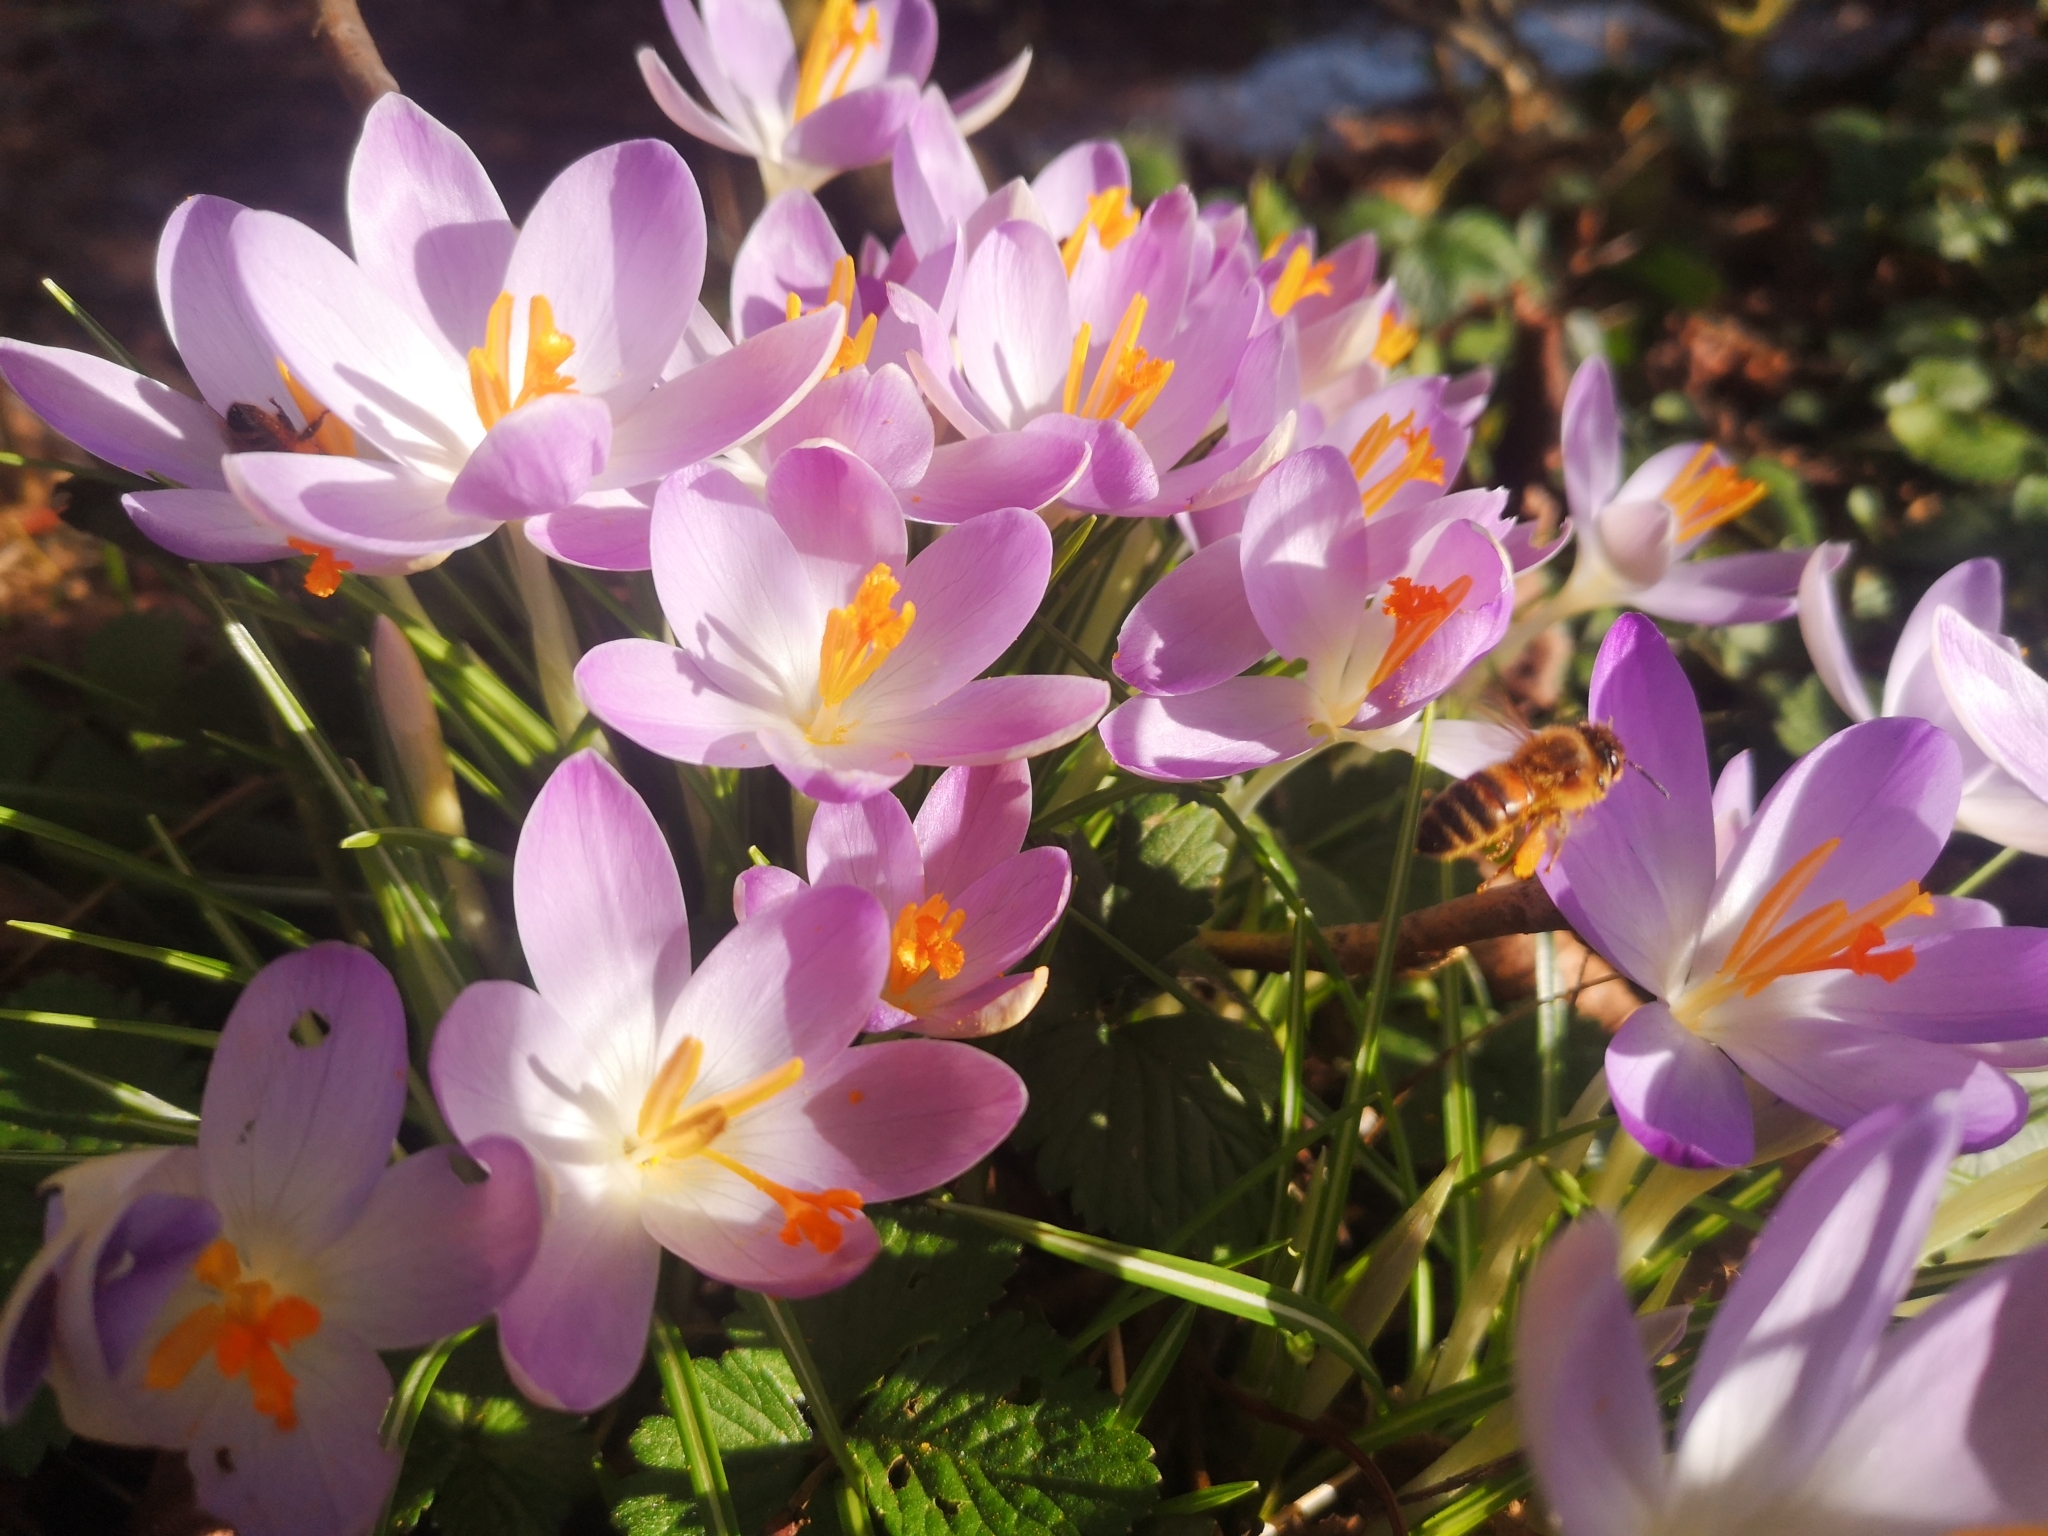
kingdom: Animalia
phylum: Arthropoda
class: Insecta
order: Hymenoptera
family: Apidae
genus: Apis
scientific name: Apis mellifera
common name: Honey bee
